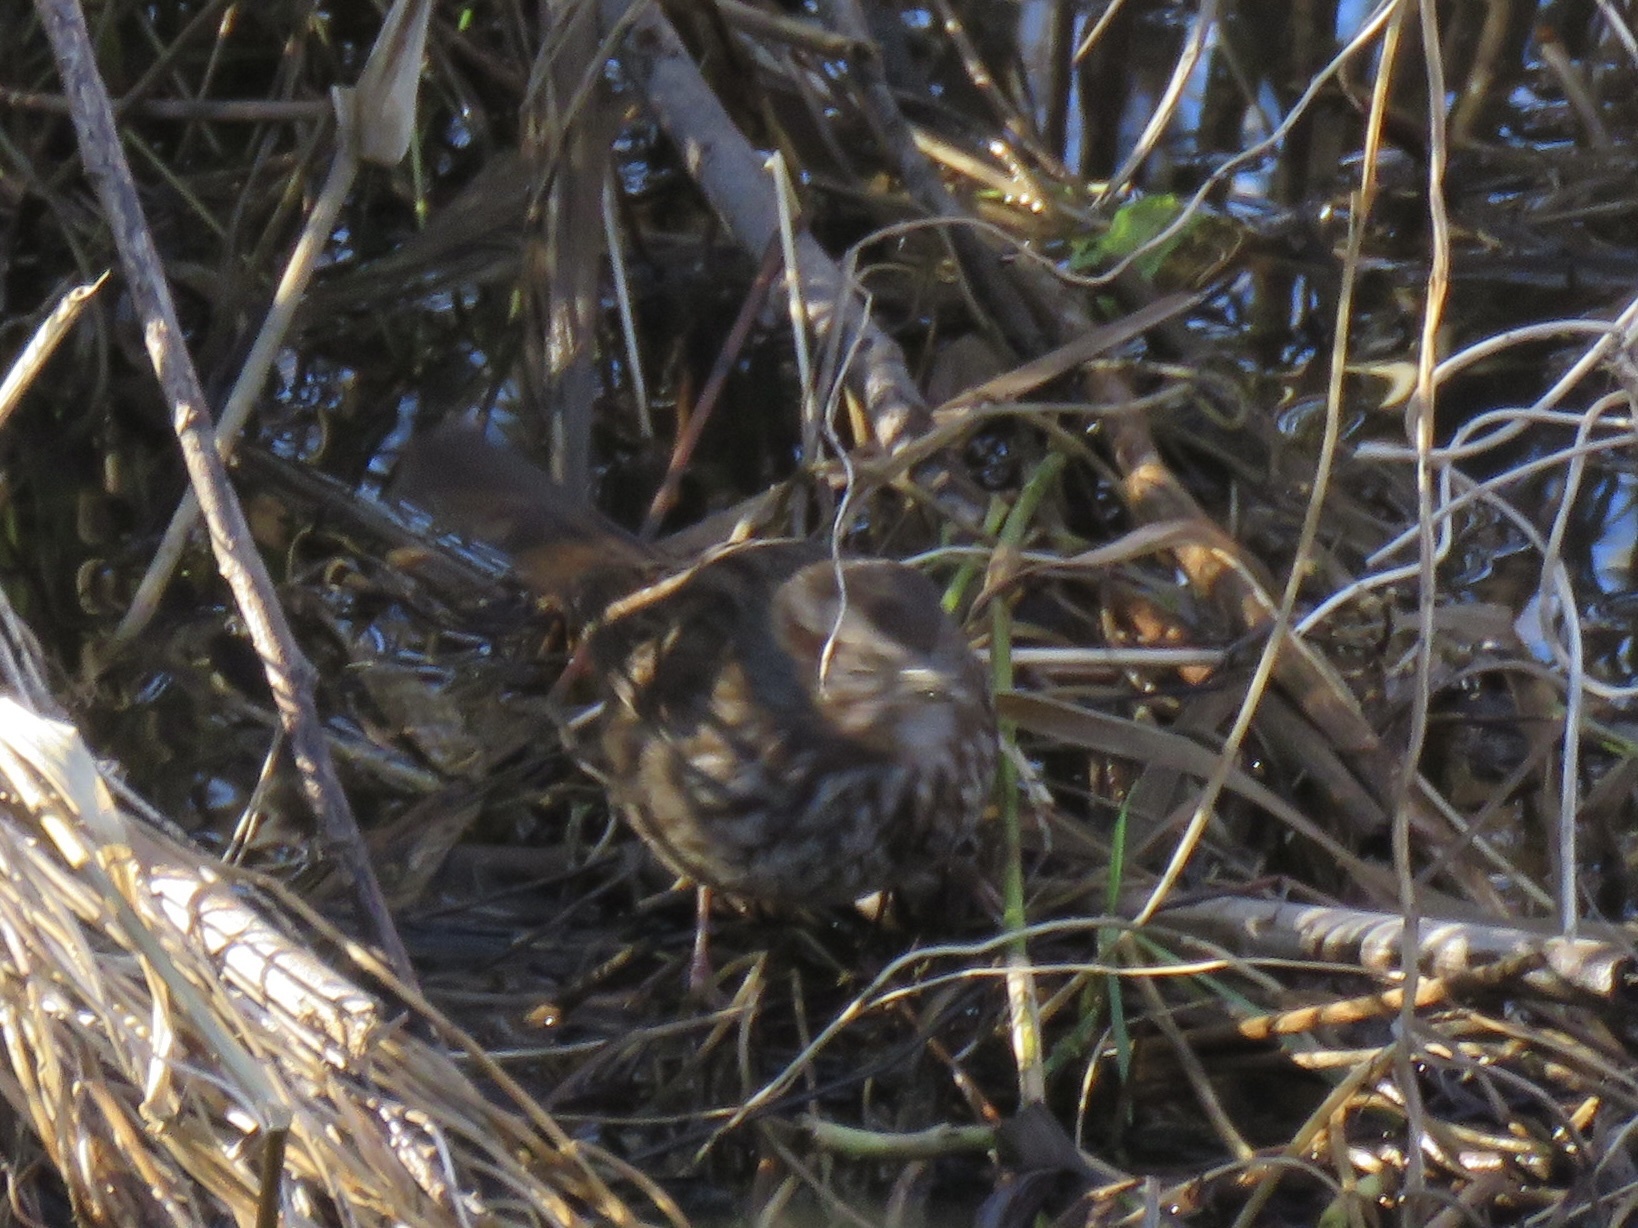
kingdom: Animalia
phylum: Chordata
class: Aves
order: Passeriformes
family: Passerellidae
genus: Melospiza
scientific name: Melospiza melodia
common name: Song sparrow
